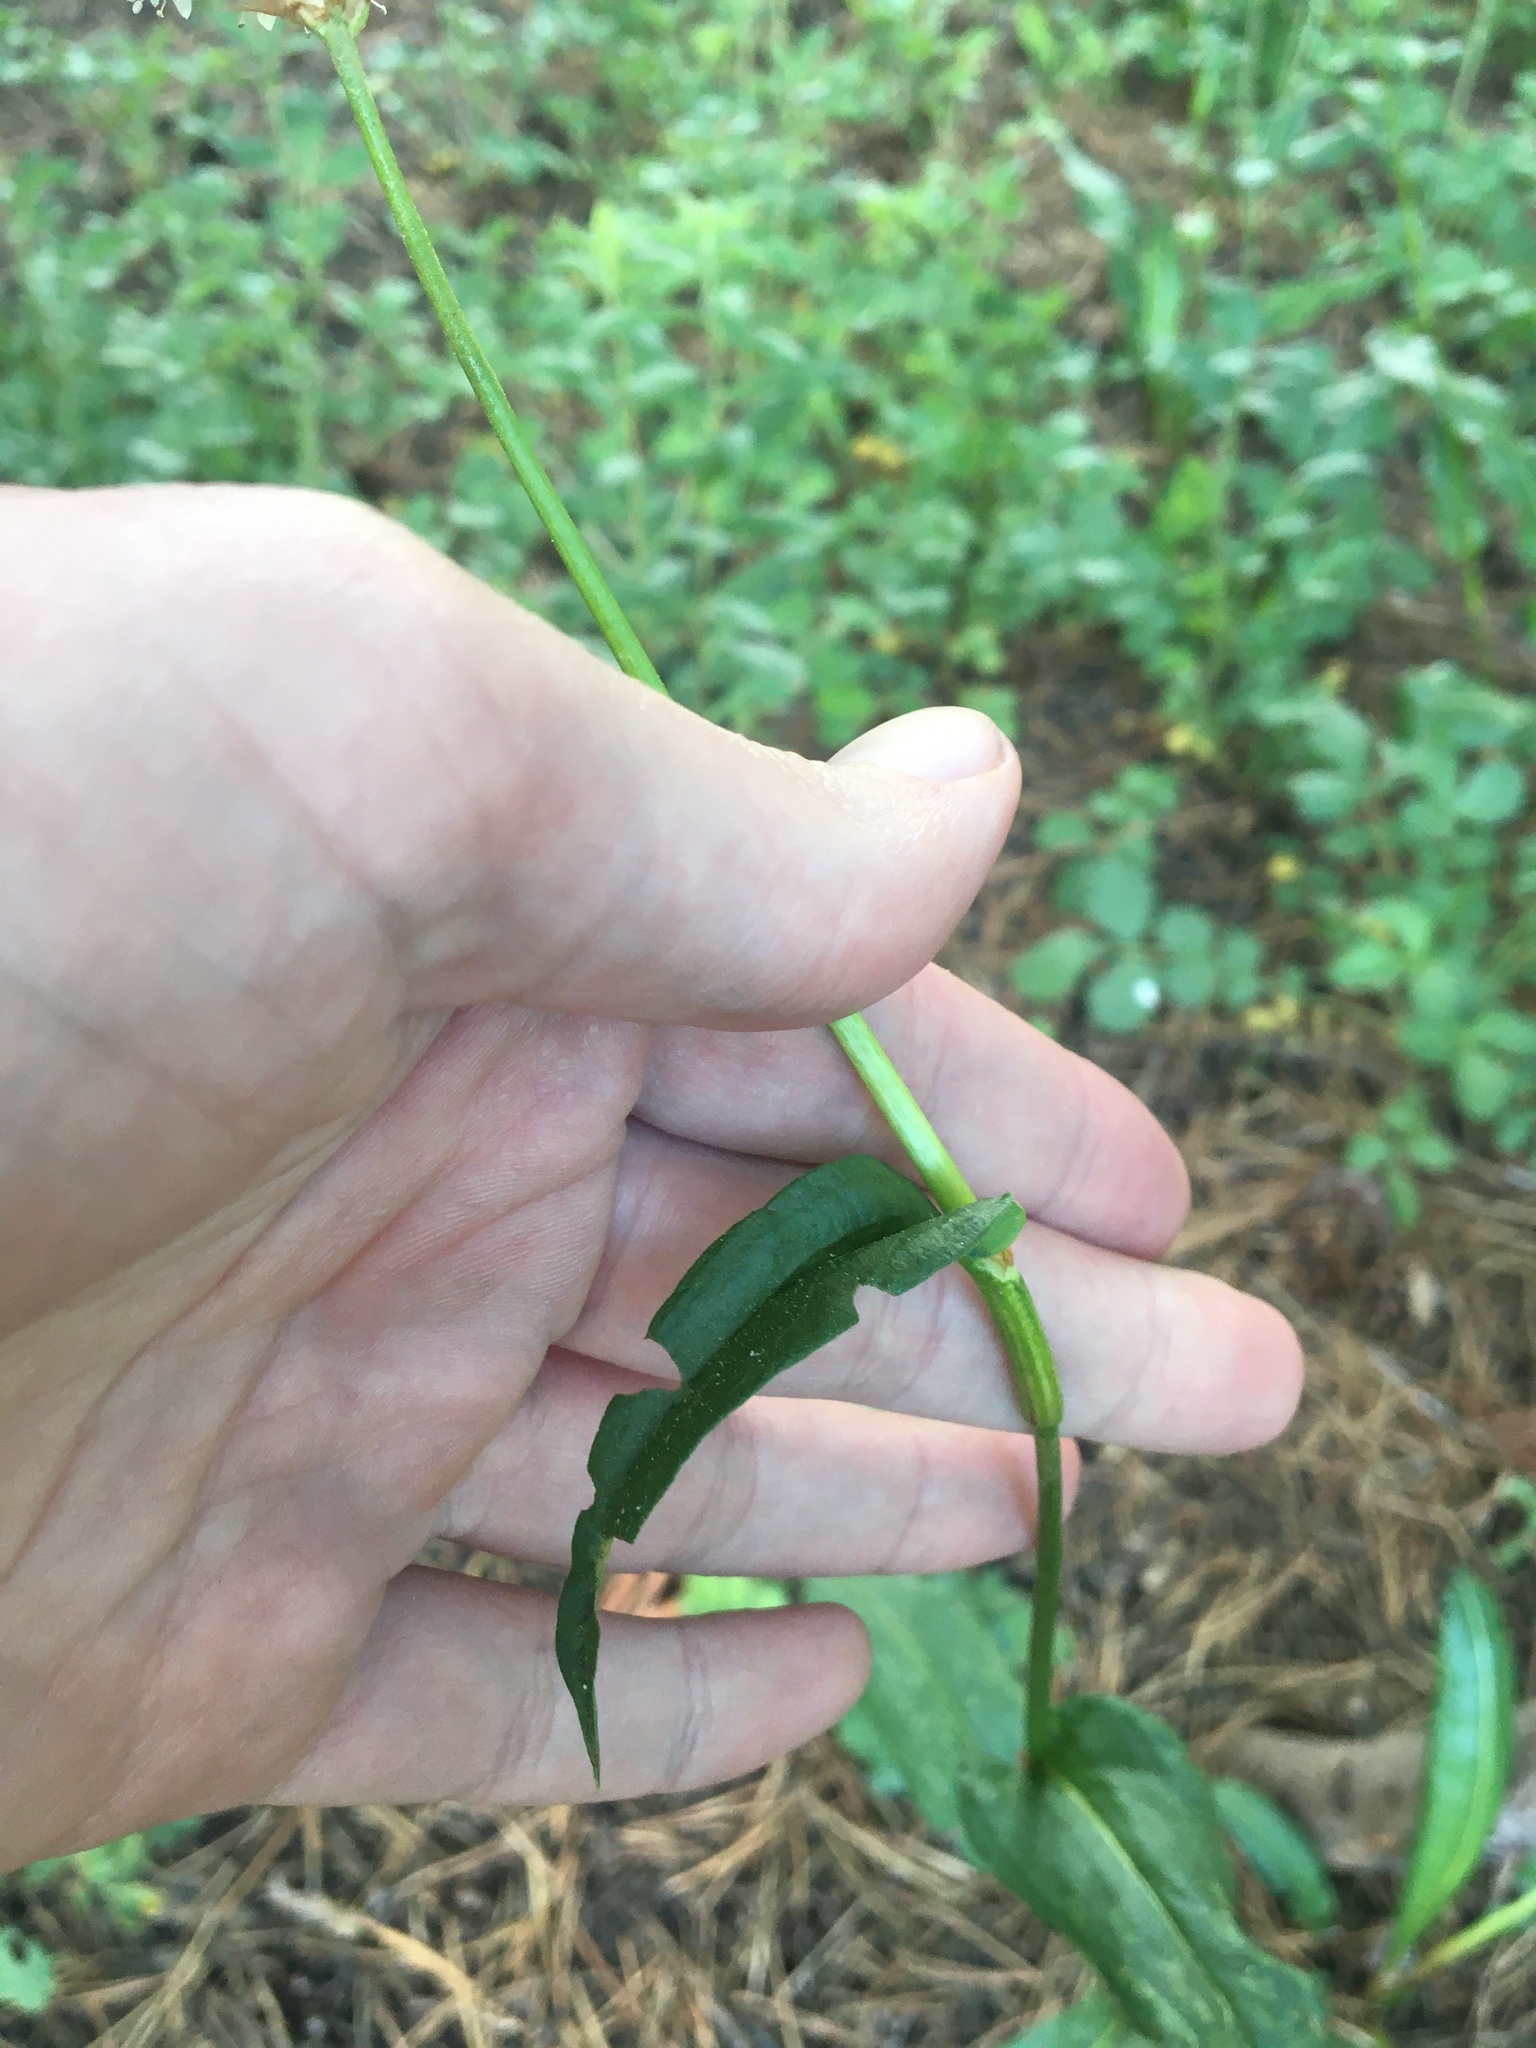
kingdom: Plantae
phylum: Tracheophyta
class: Magnoliopsida
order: Caryophyllales
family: Polygonaceae
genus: Bistorta
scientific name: Bistorta bistortoides
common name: American bistort
